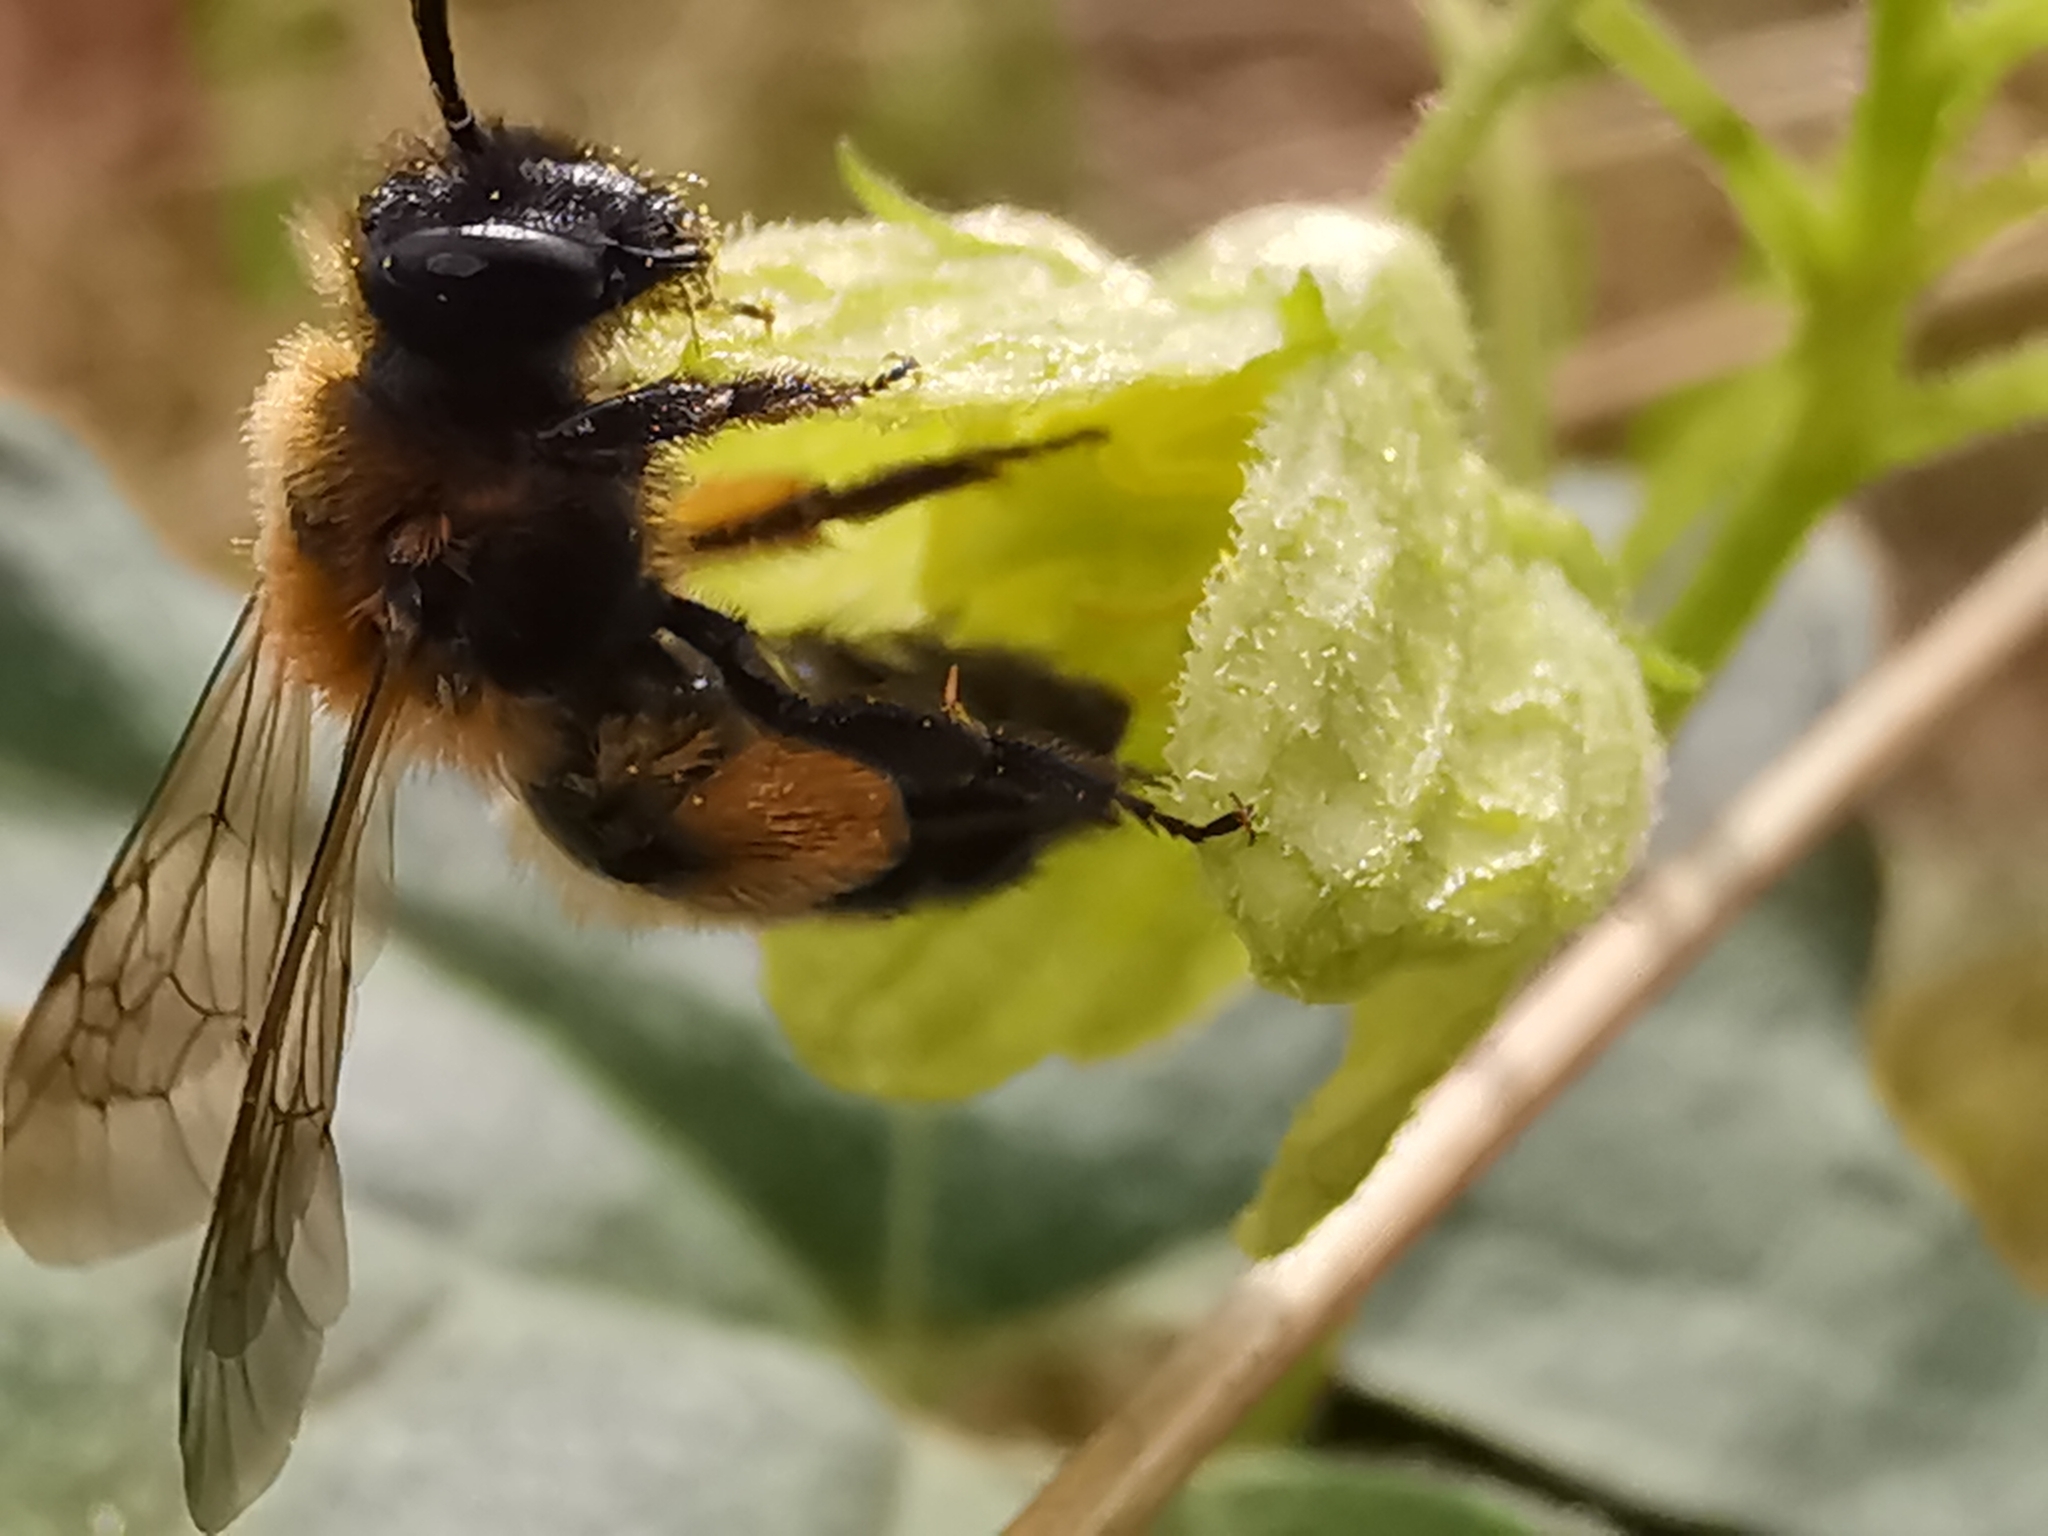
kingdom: Animalia
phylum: Arthropoda
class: Insecta
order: Hymenoptera
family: Andrenidae
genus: Andrena
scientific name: Andrena bicolor
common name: Gwynne's mining bee
